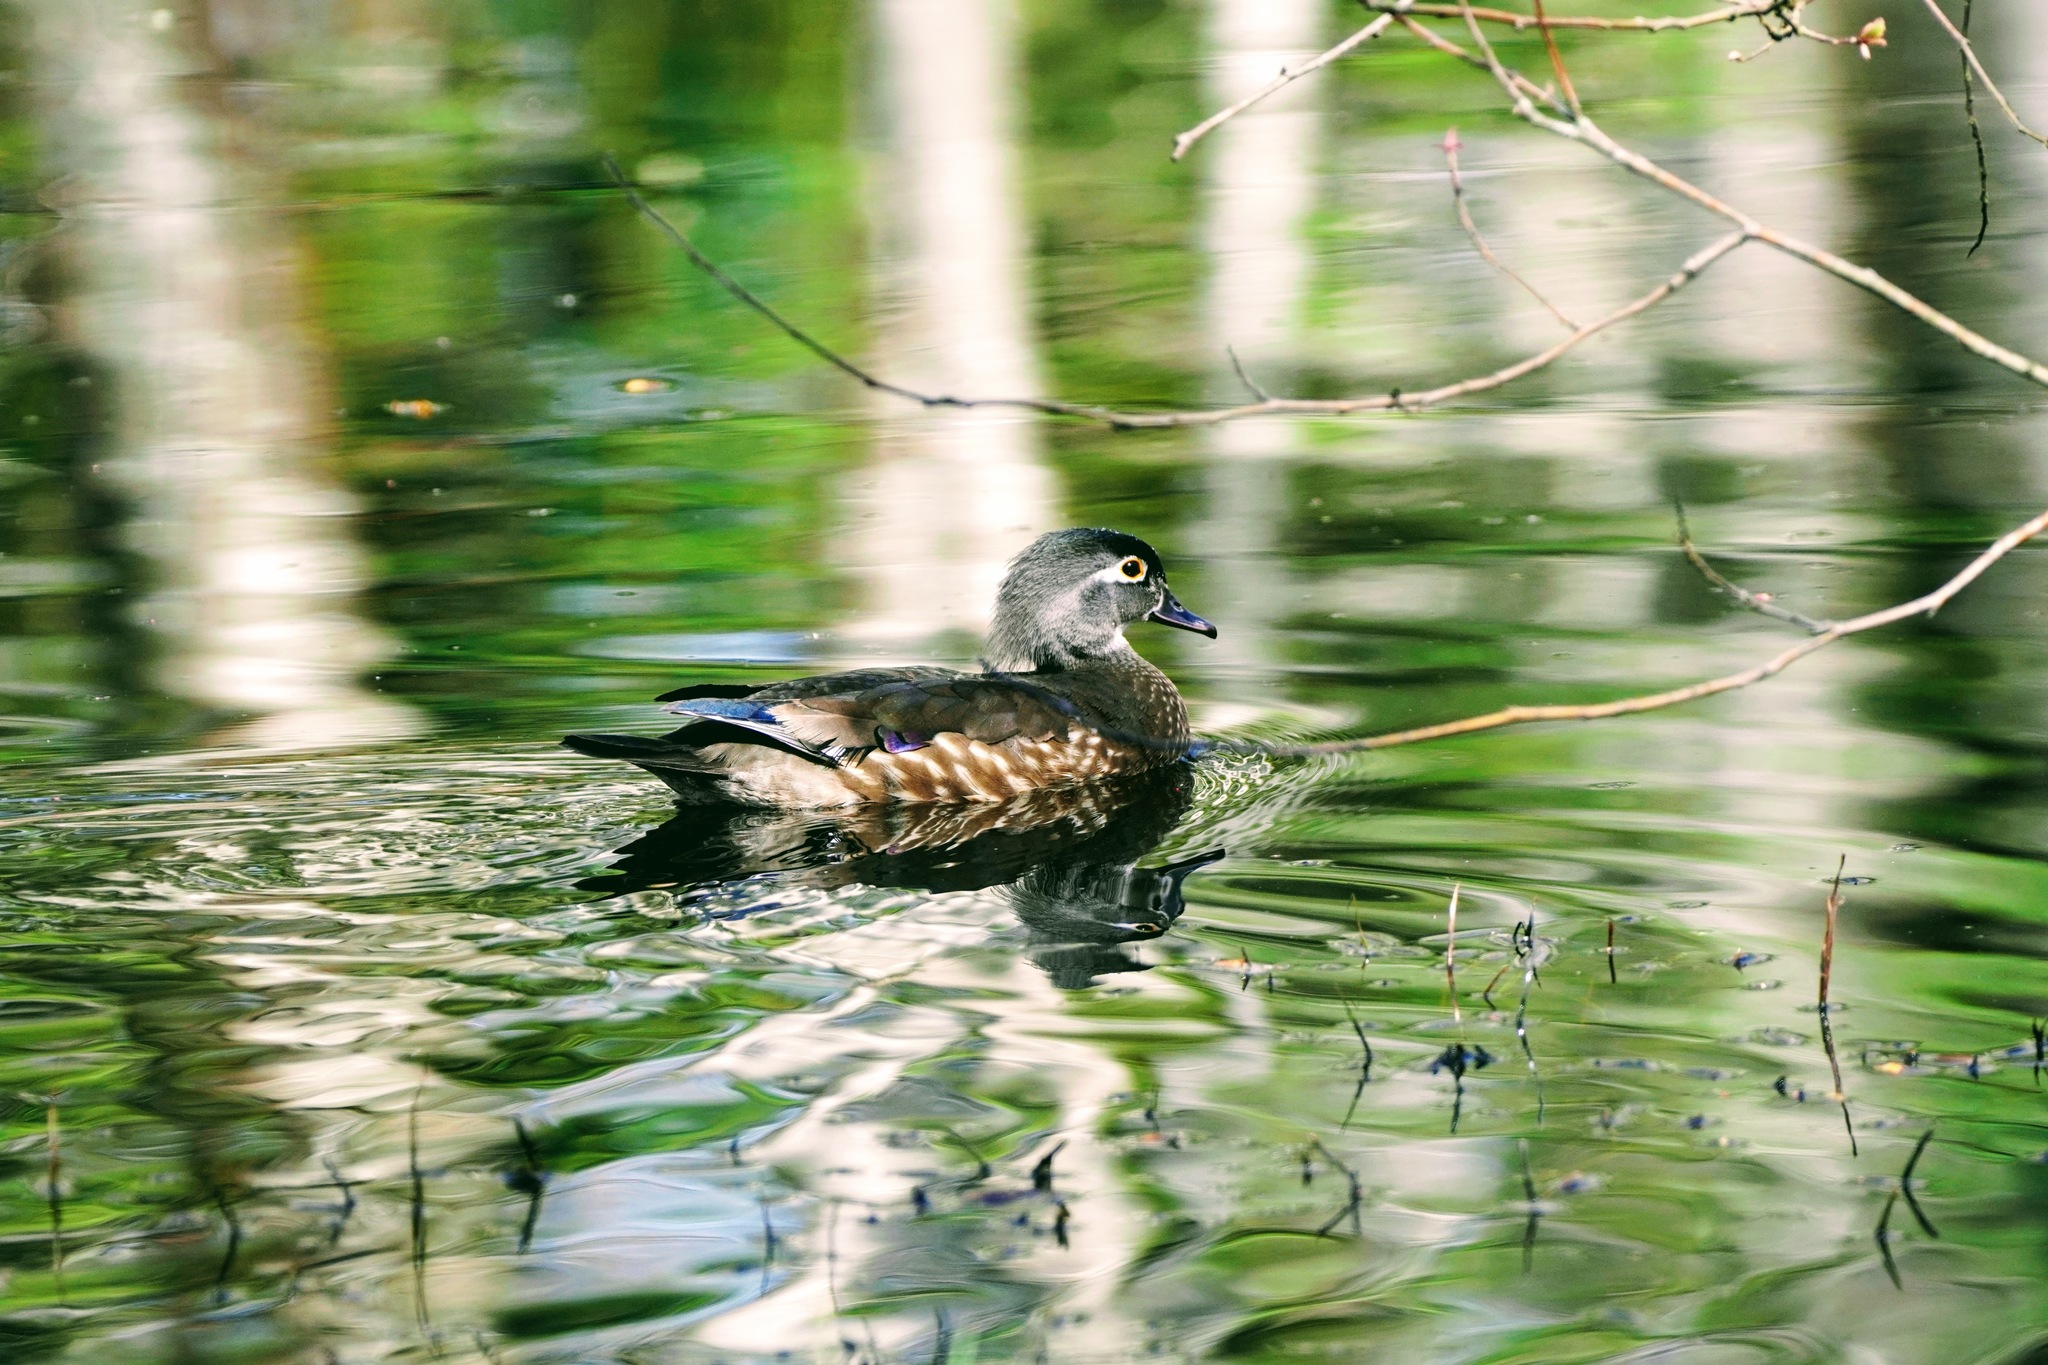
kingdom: Animalia
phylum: Chordata
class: Aves
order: Anseriformes
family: Anatidae
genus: Aix
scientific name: Aix sponsa
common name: Wood duck
